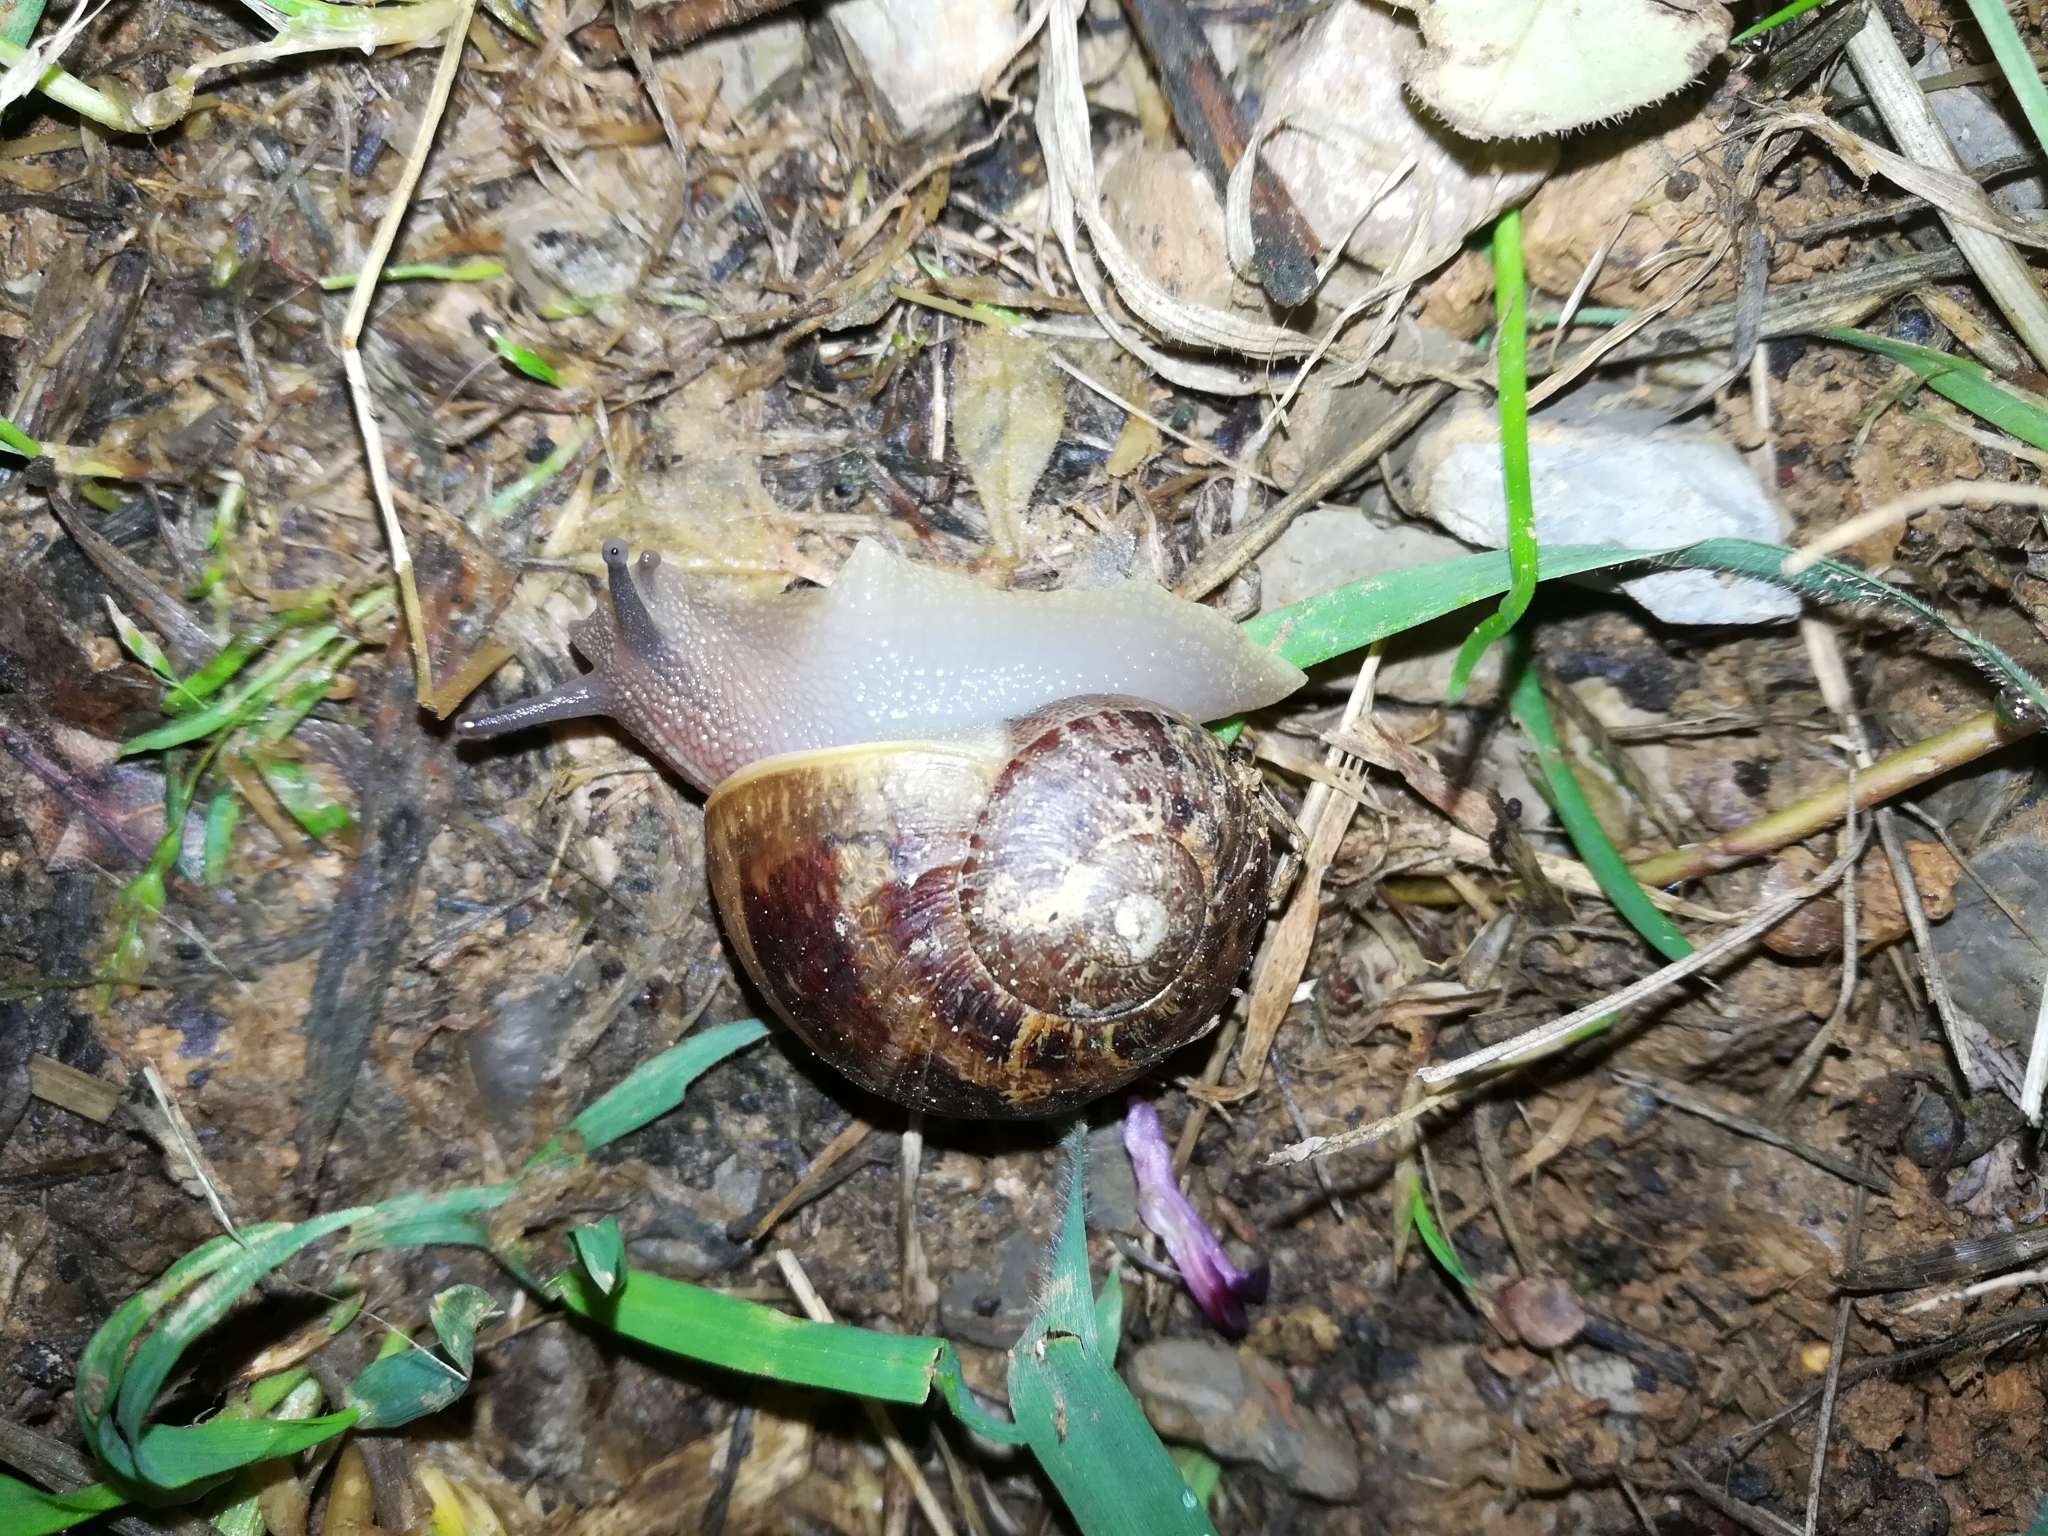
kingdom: Animalia
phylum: Mollusca
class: Gastropoda
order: Stylommatophora
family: Helicidae
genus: Cornu
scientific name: Cornu aspersum
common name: Brown garden snail
